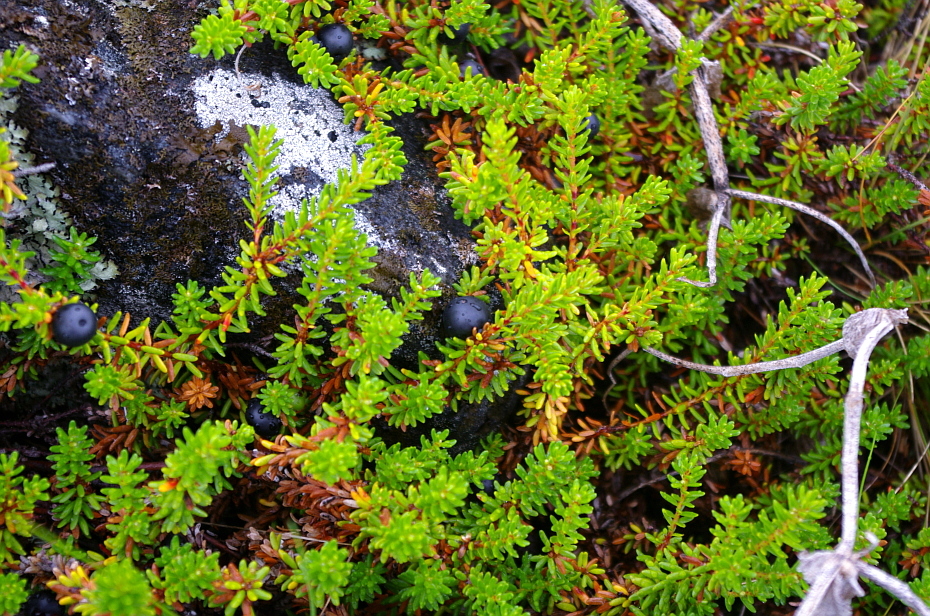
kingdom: Plantae
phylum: Tracheophyta
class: Magnoliopsida
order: Ericales
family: Ericaceae
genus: Empetrum
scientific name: Empetrum nigrum
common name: Black crowberry
